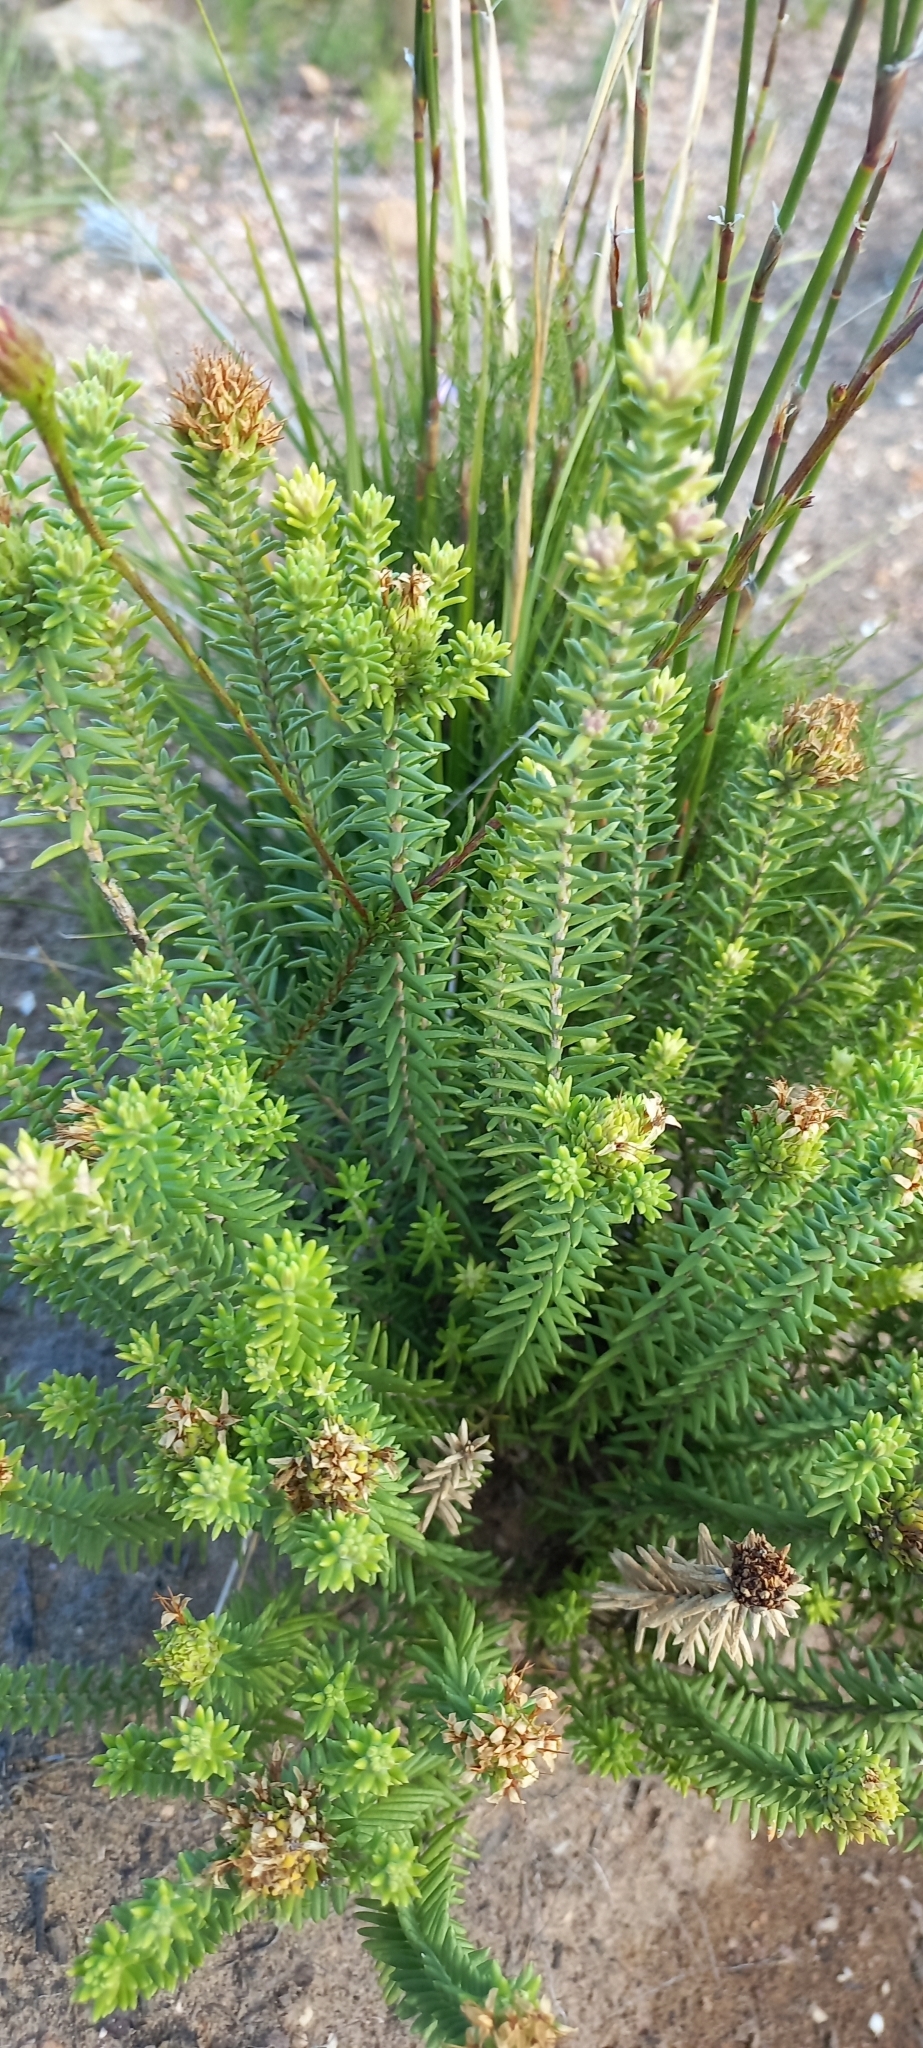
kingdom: Plantae
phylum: Tracheophyta
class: Magnoliopsida
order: Lamiales
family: Stilbaceae
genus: Stilbe
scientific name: Stilbe vestita
